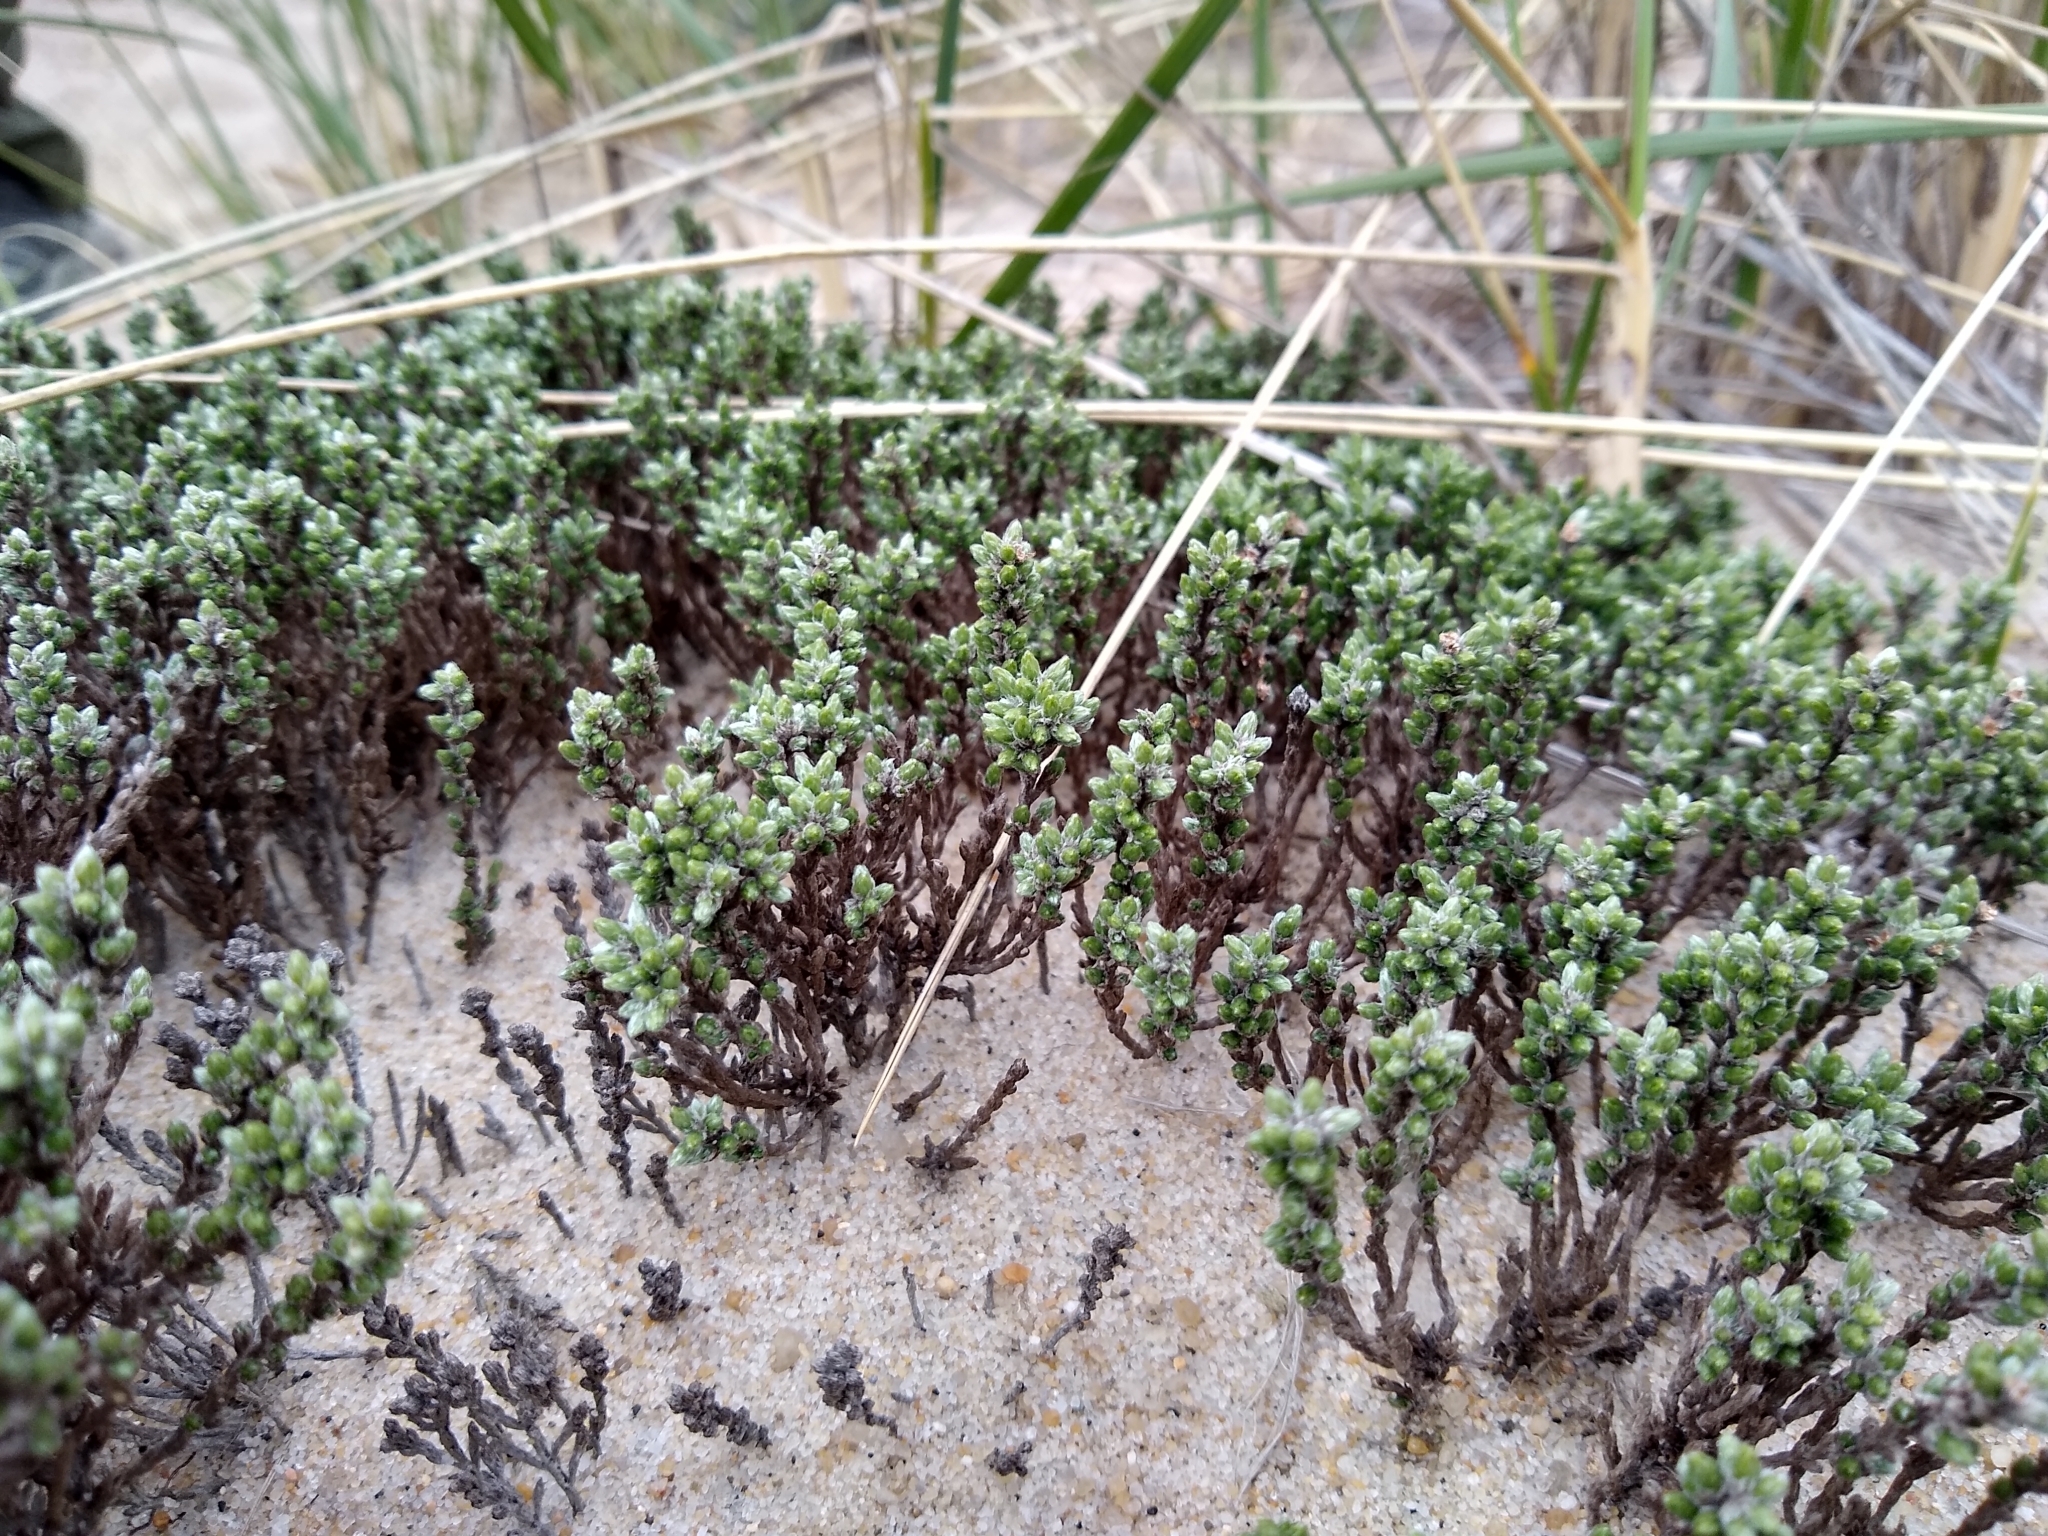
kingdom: Plantae
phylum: Tracheophyta
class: Magnoliopsida
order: Malvales
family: Cistaceae
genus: Hudsonia
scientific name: Hudsonia tomentosa
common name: Beach-heath
